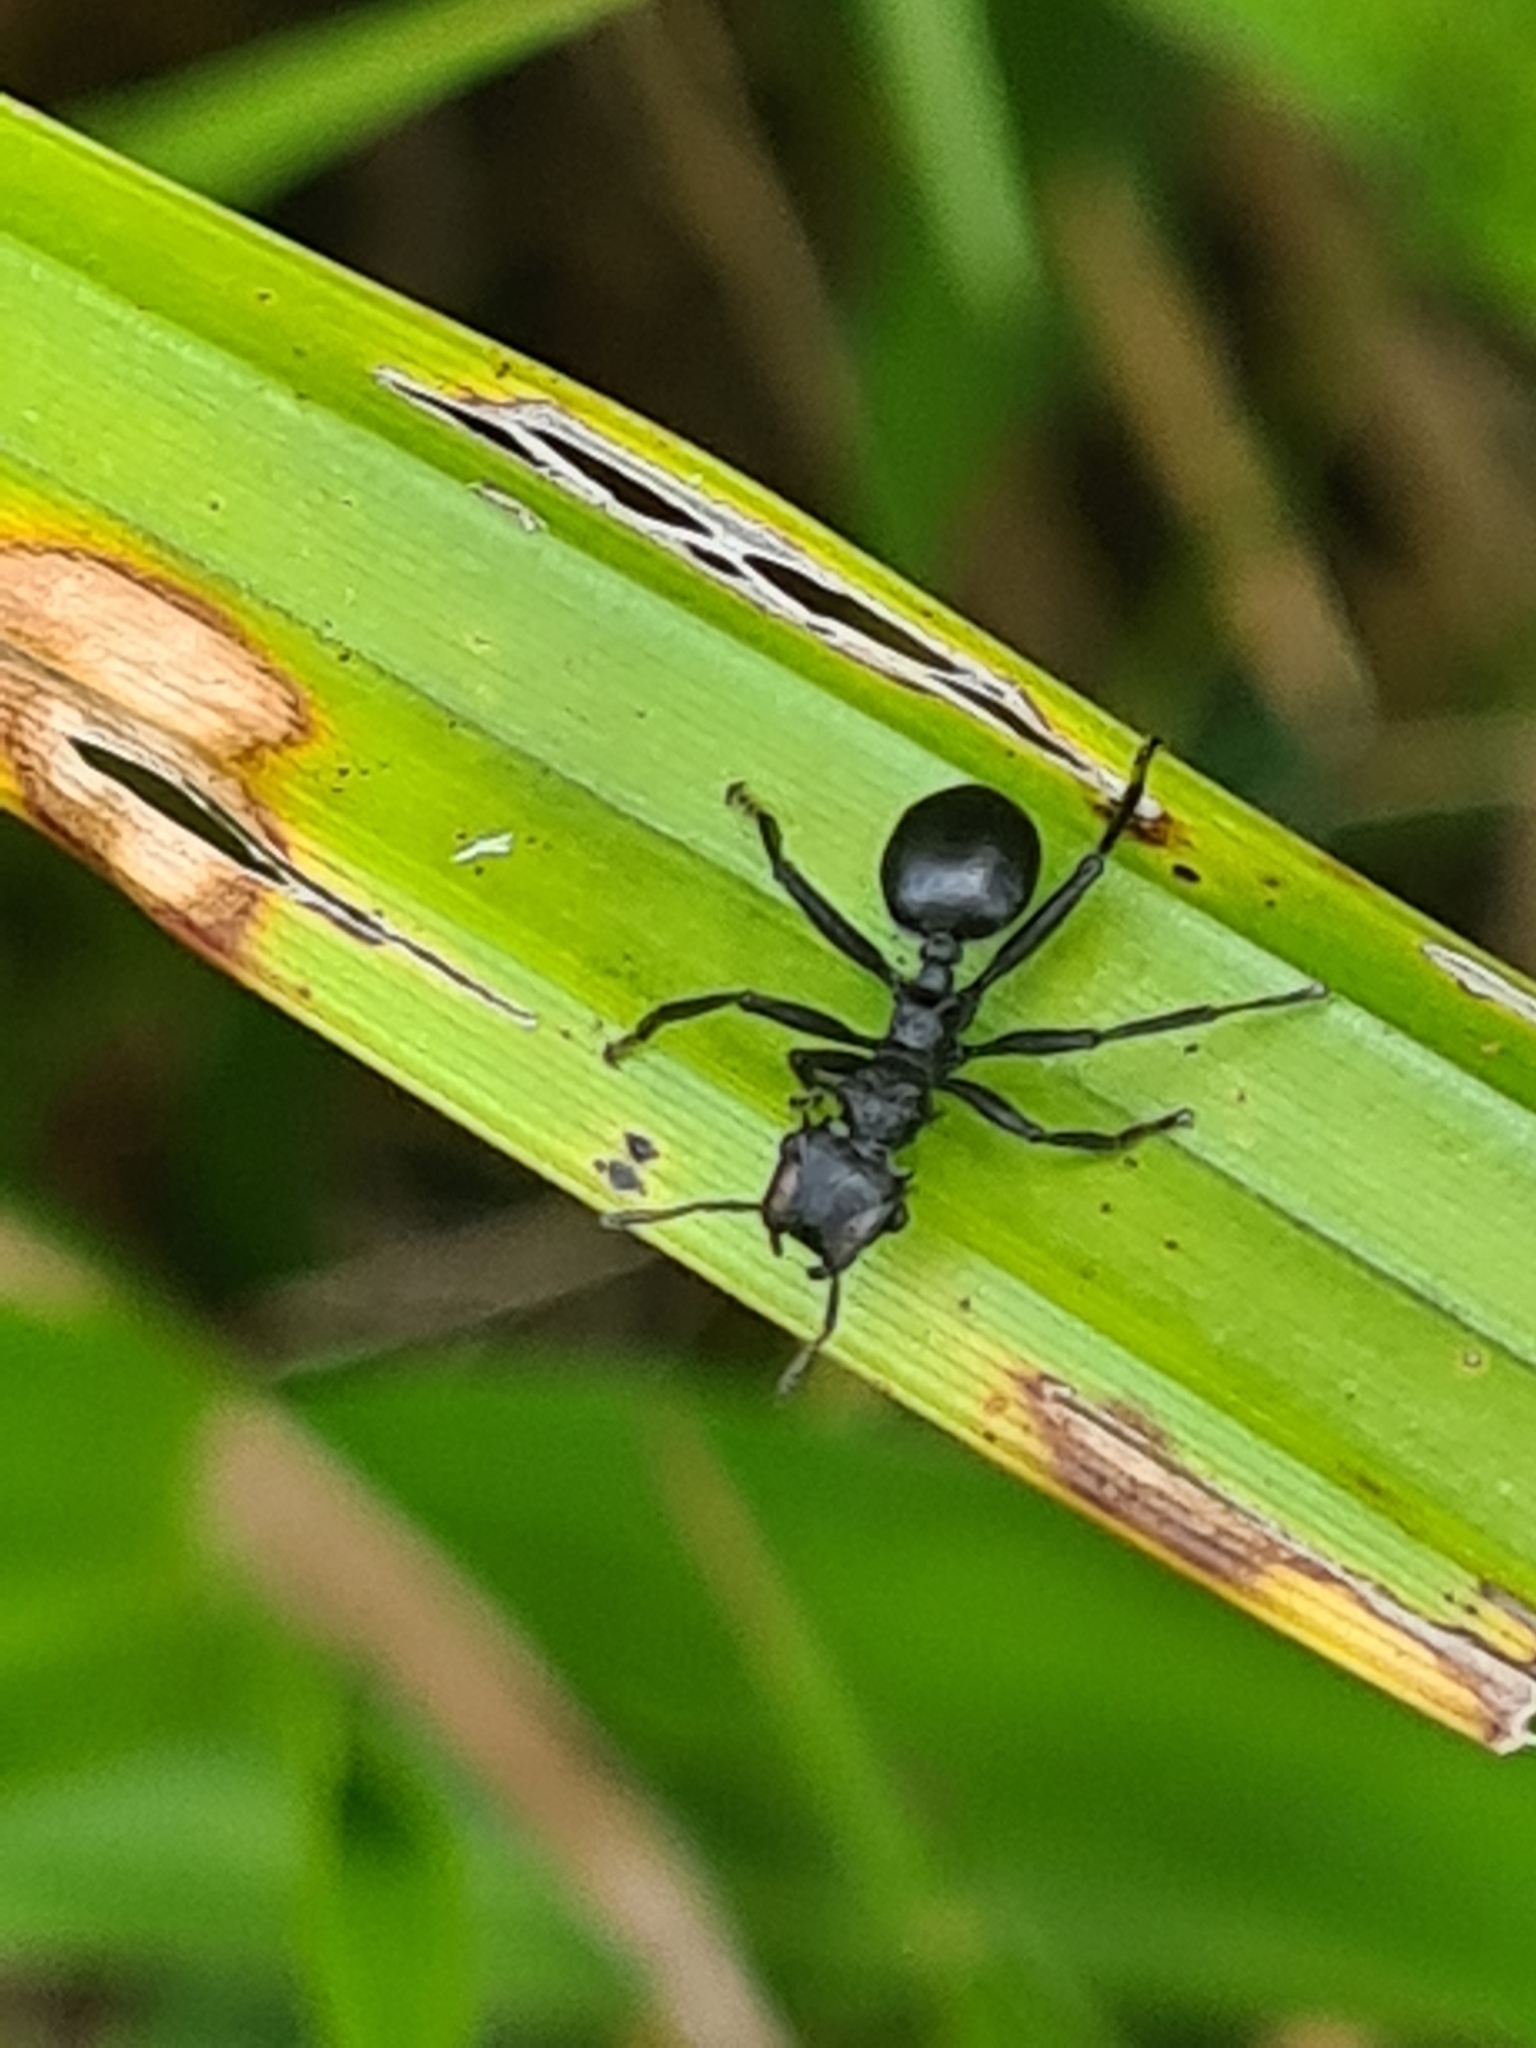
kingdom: Animalia
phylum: Arthropoda
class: Insecta
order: Hymenoptera
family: Formicidae
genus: Cephalotes
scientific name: Cephalotes atratus
